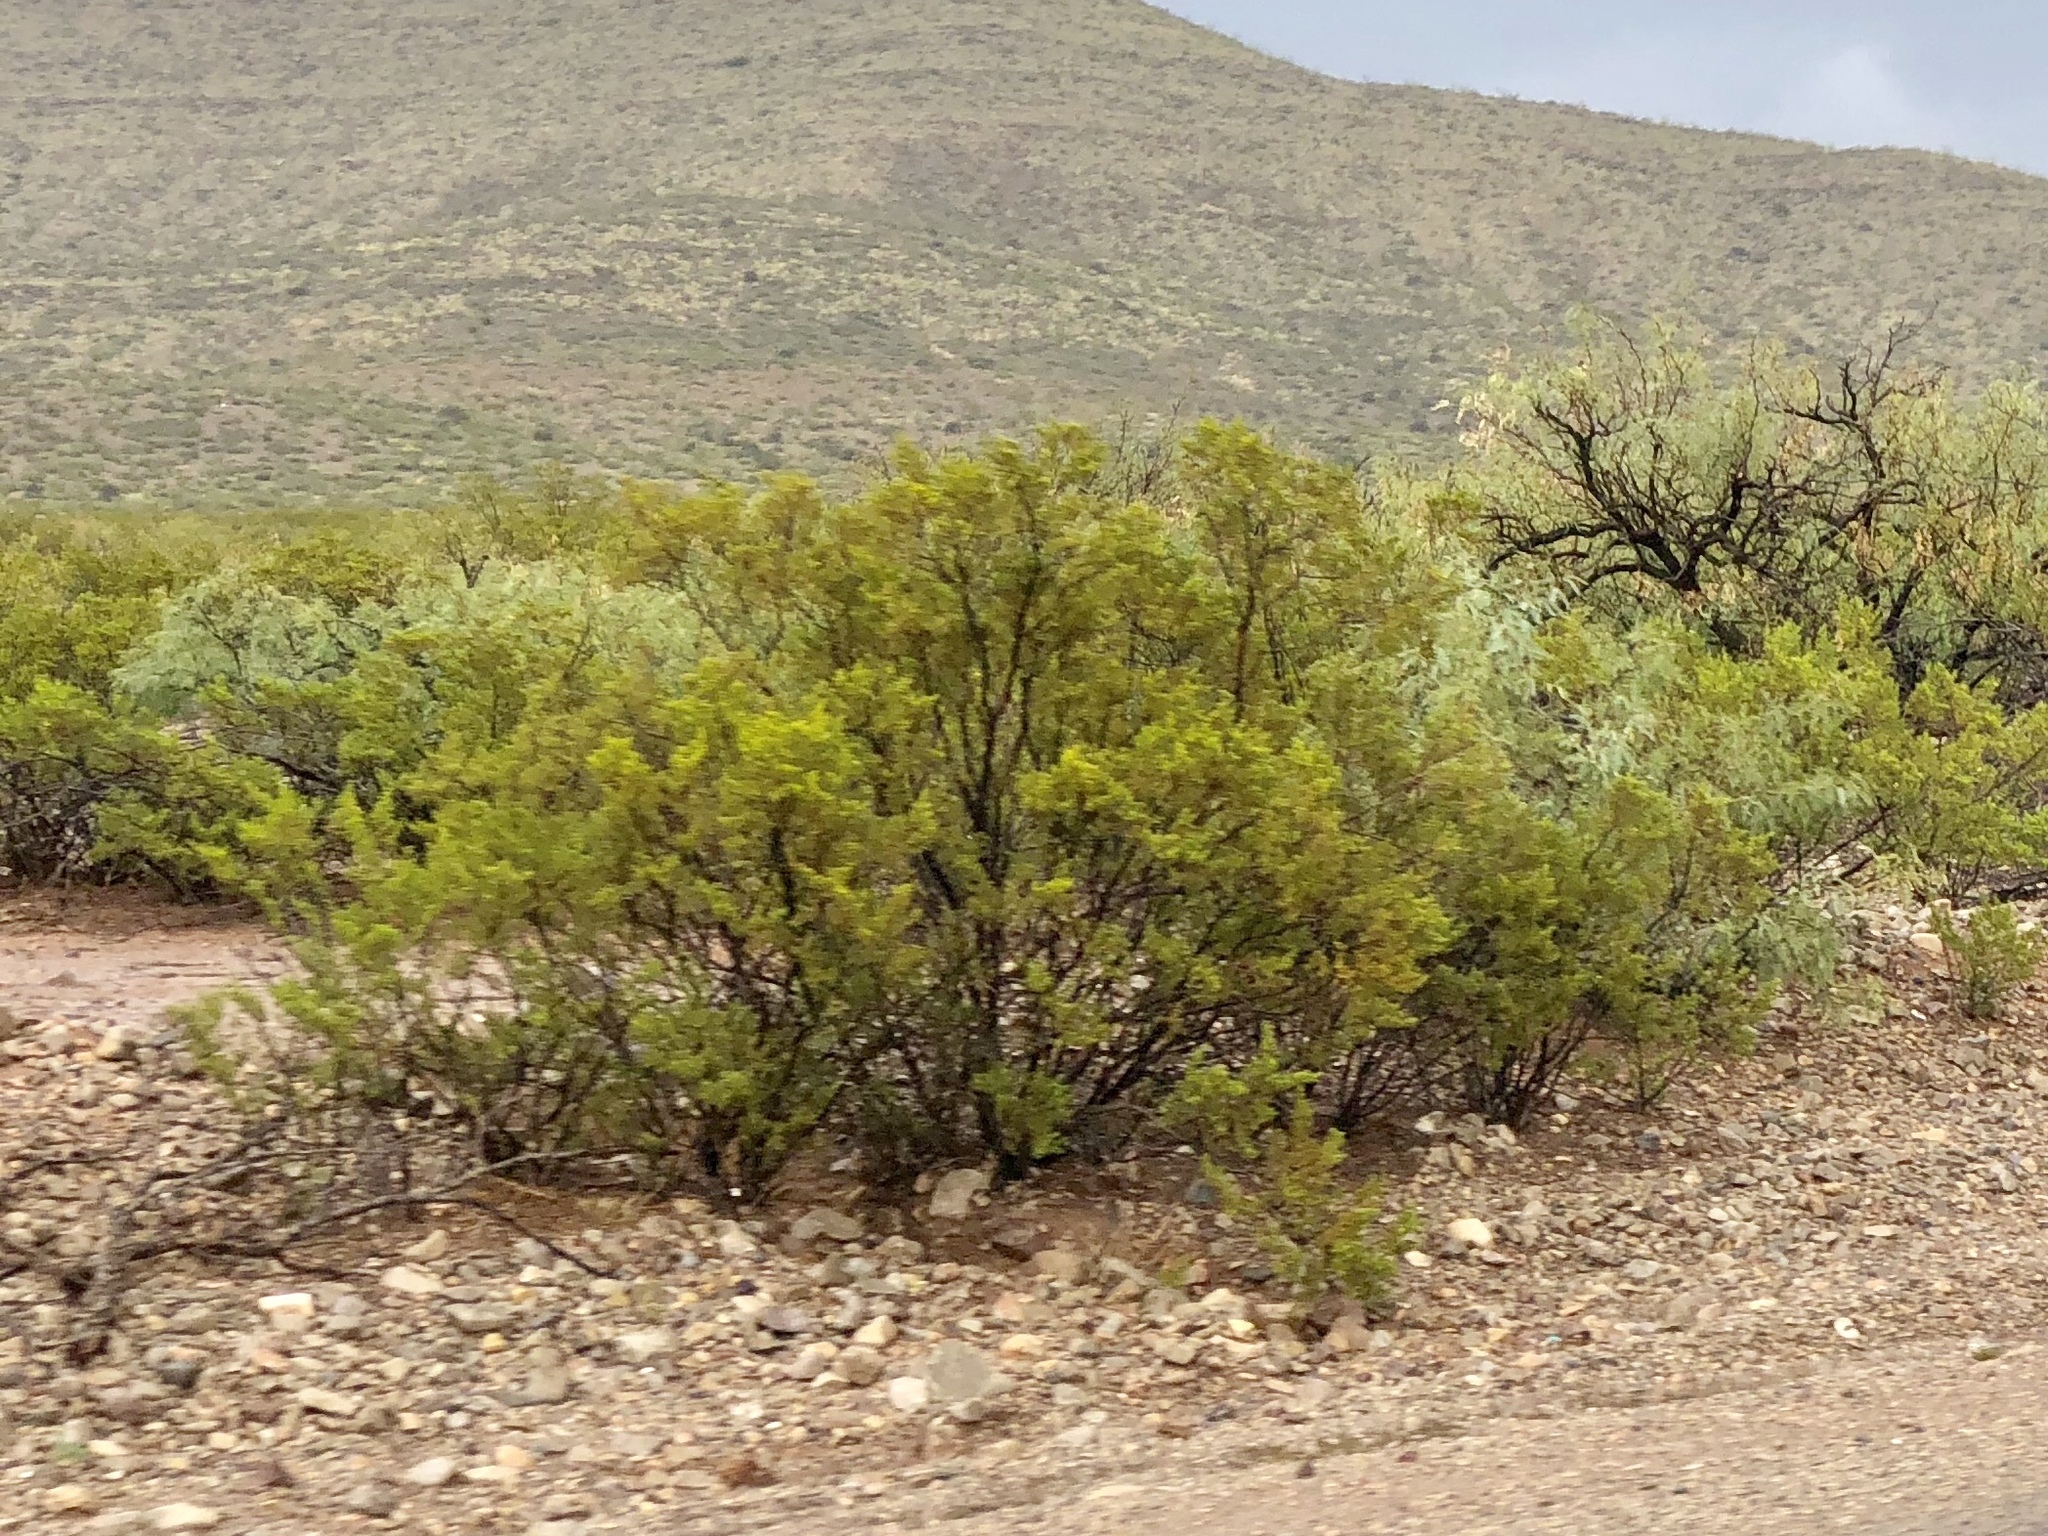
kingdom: Plantae
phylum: Tracheophyta
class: Magnoliopsida
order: Zygophyllales
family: Zygophyllaceae
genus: Larrea
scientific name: Larrea tridentata
